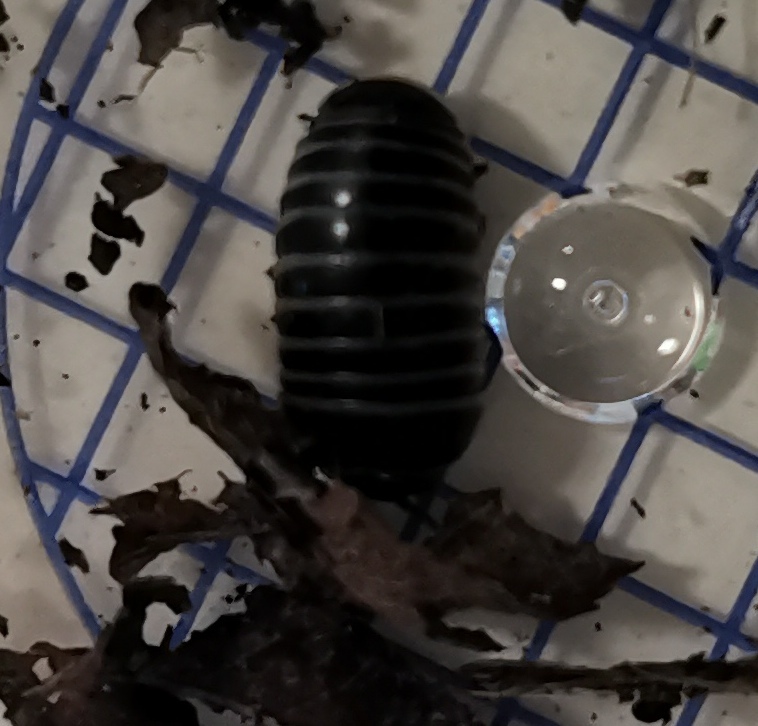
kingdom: Animalia
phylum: Arthropoda
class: Diplopoda
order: Glomerida
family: Glomeridae
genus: Glomeris
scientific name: Glomeris marginata
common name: Bordered pill millipede
